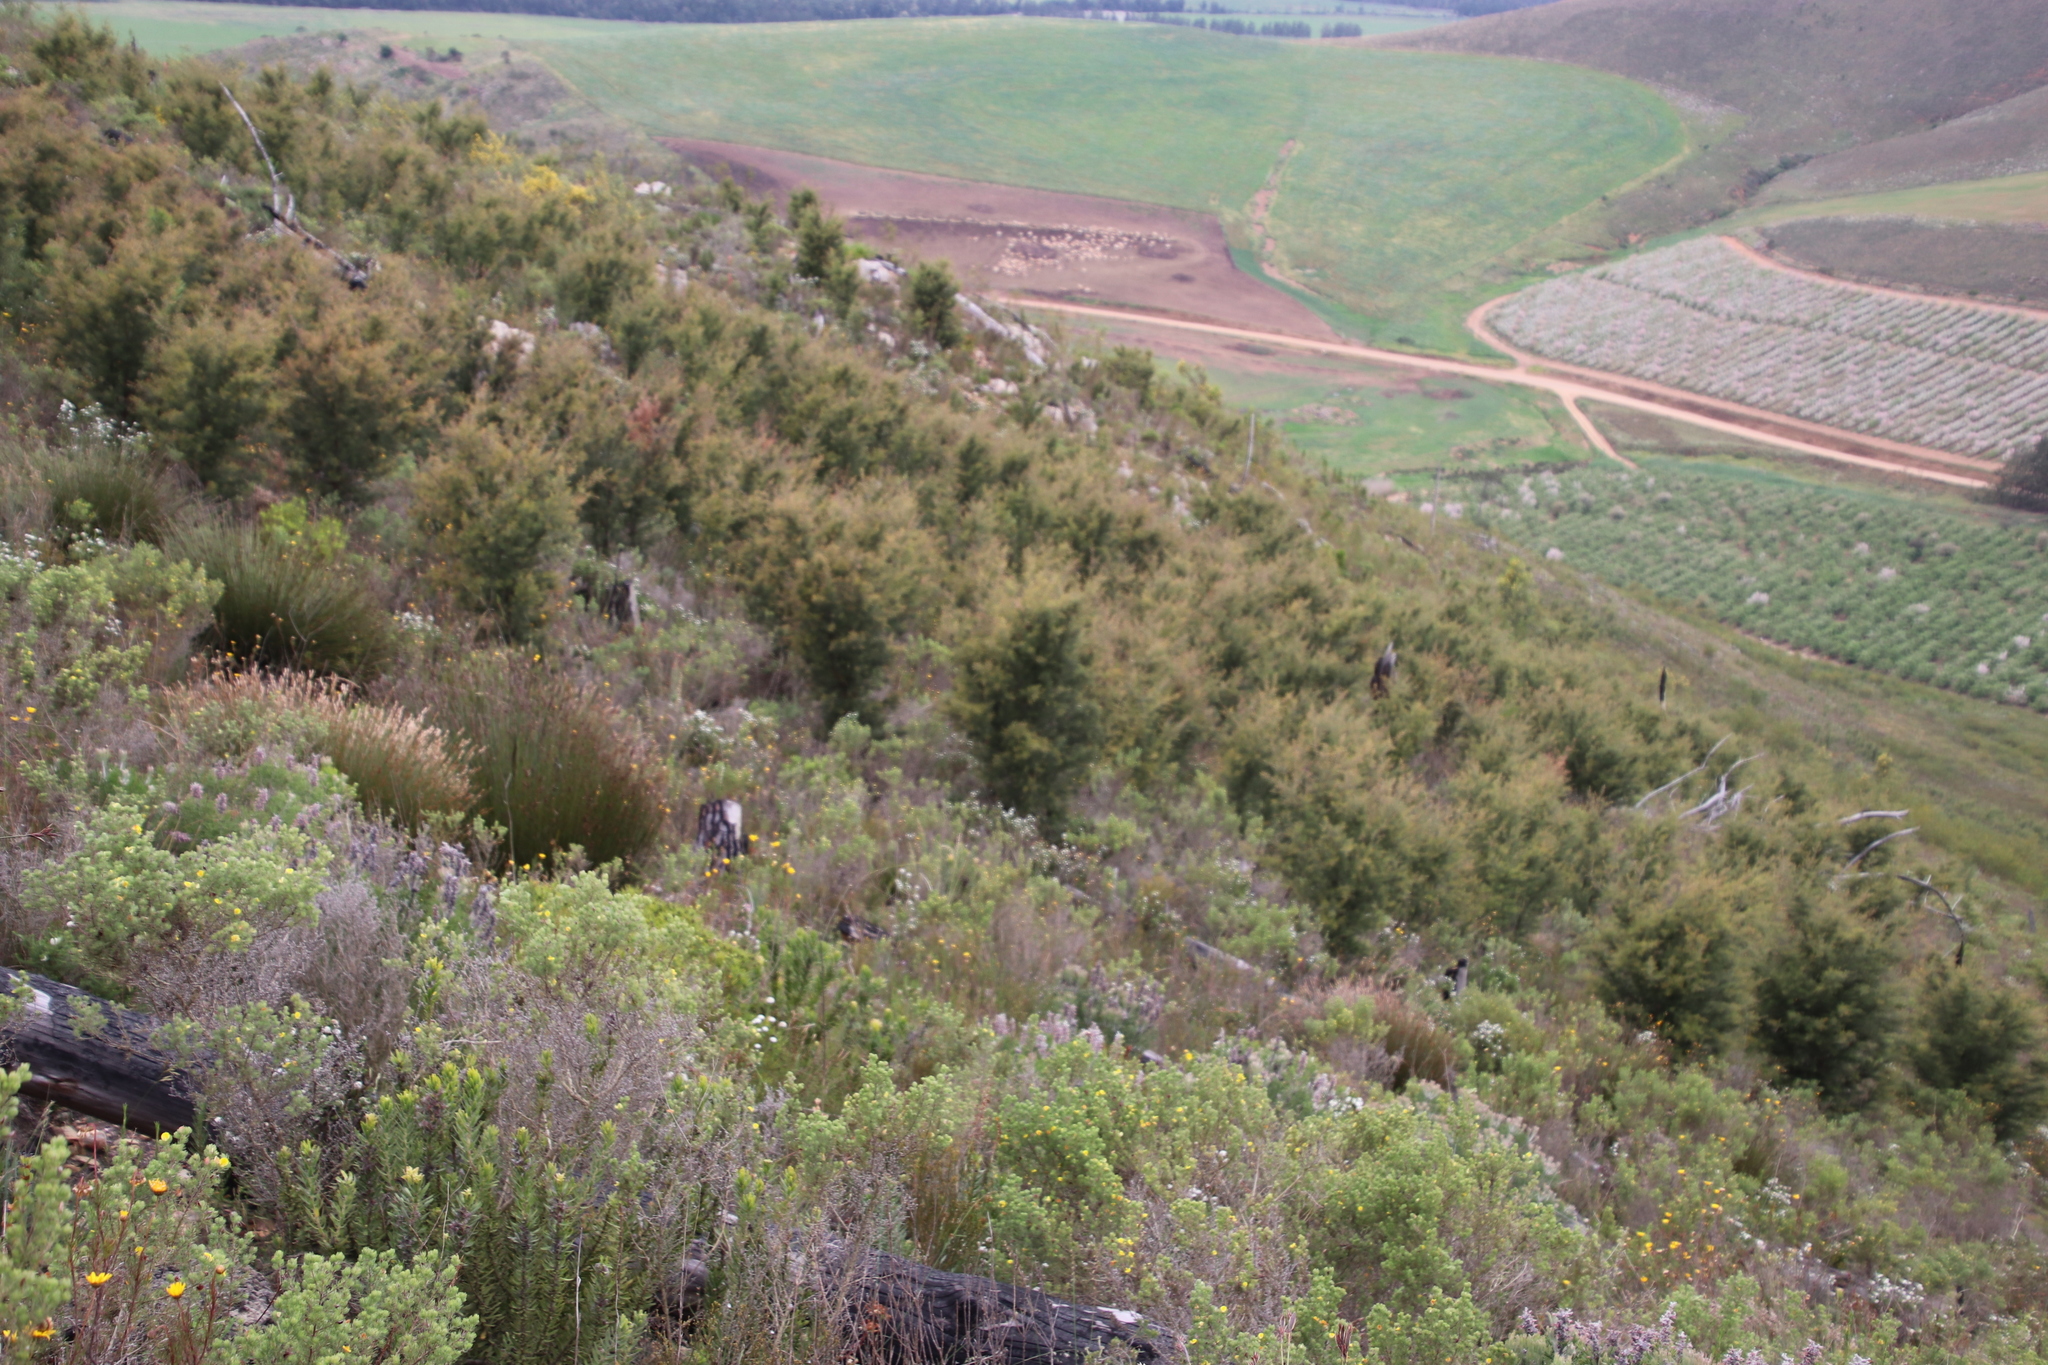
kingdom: Plantae
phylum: Tracheophyta
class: Magnoliopsida
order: Proteales
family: Proteaceae
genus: Hakea
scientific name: Hakea sericea
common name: Needle bush
